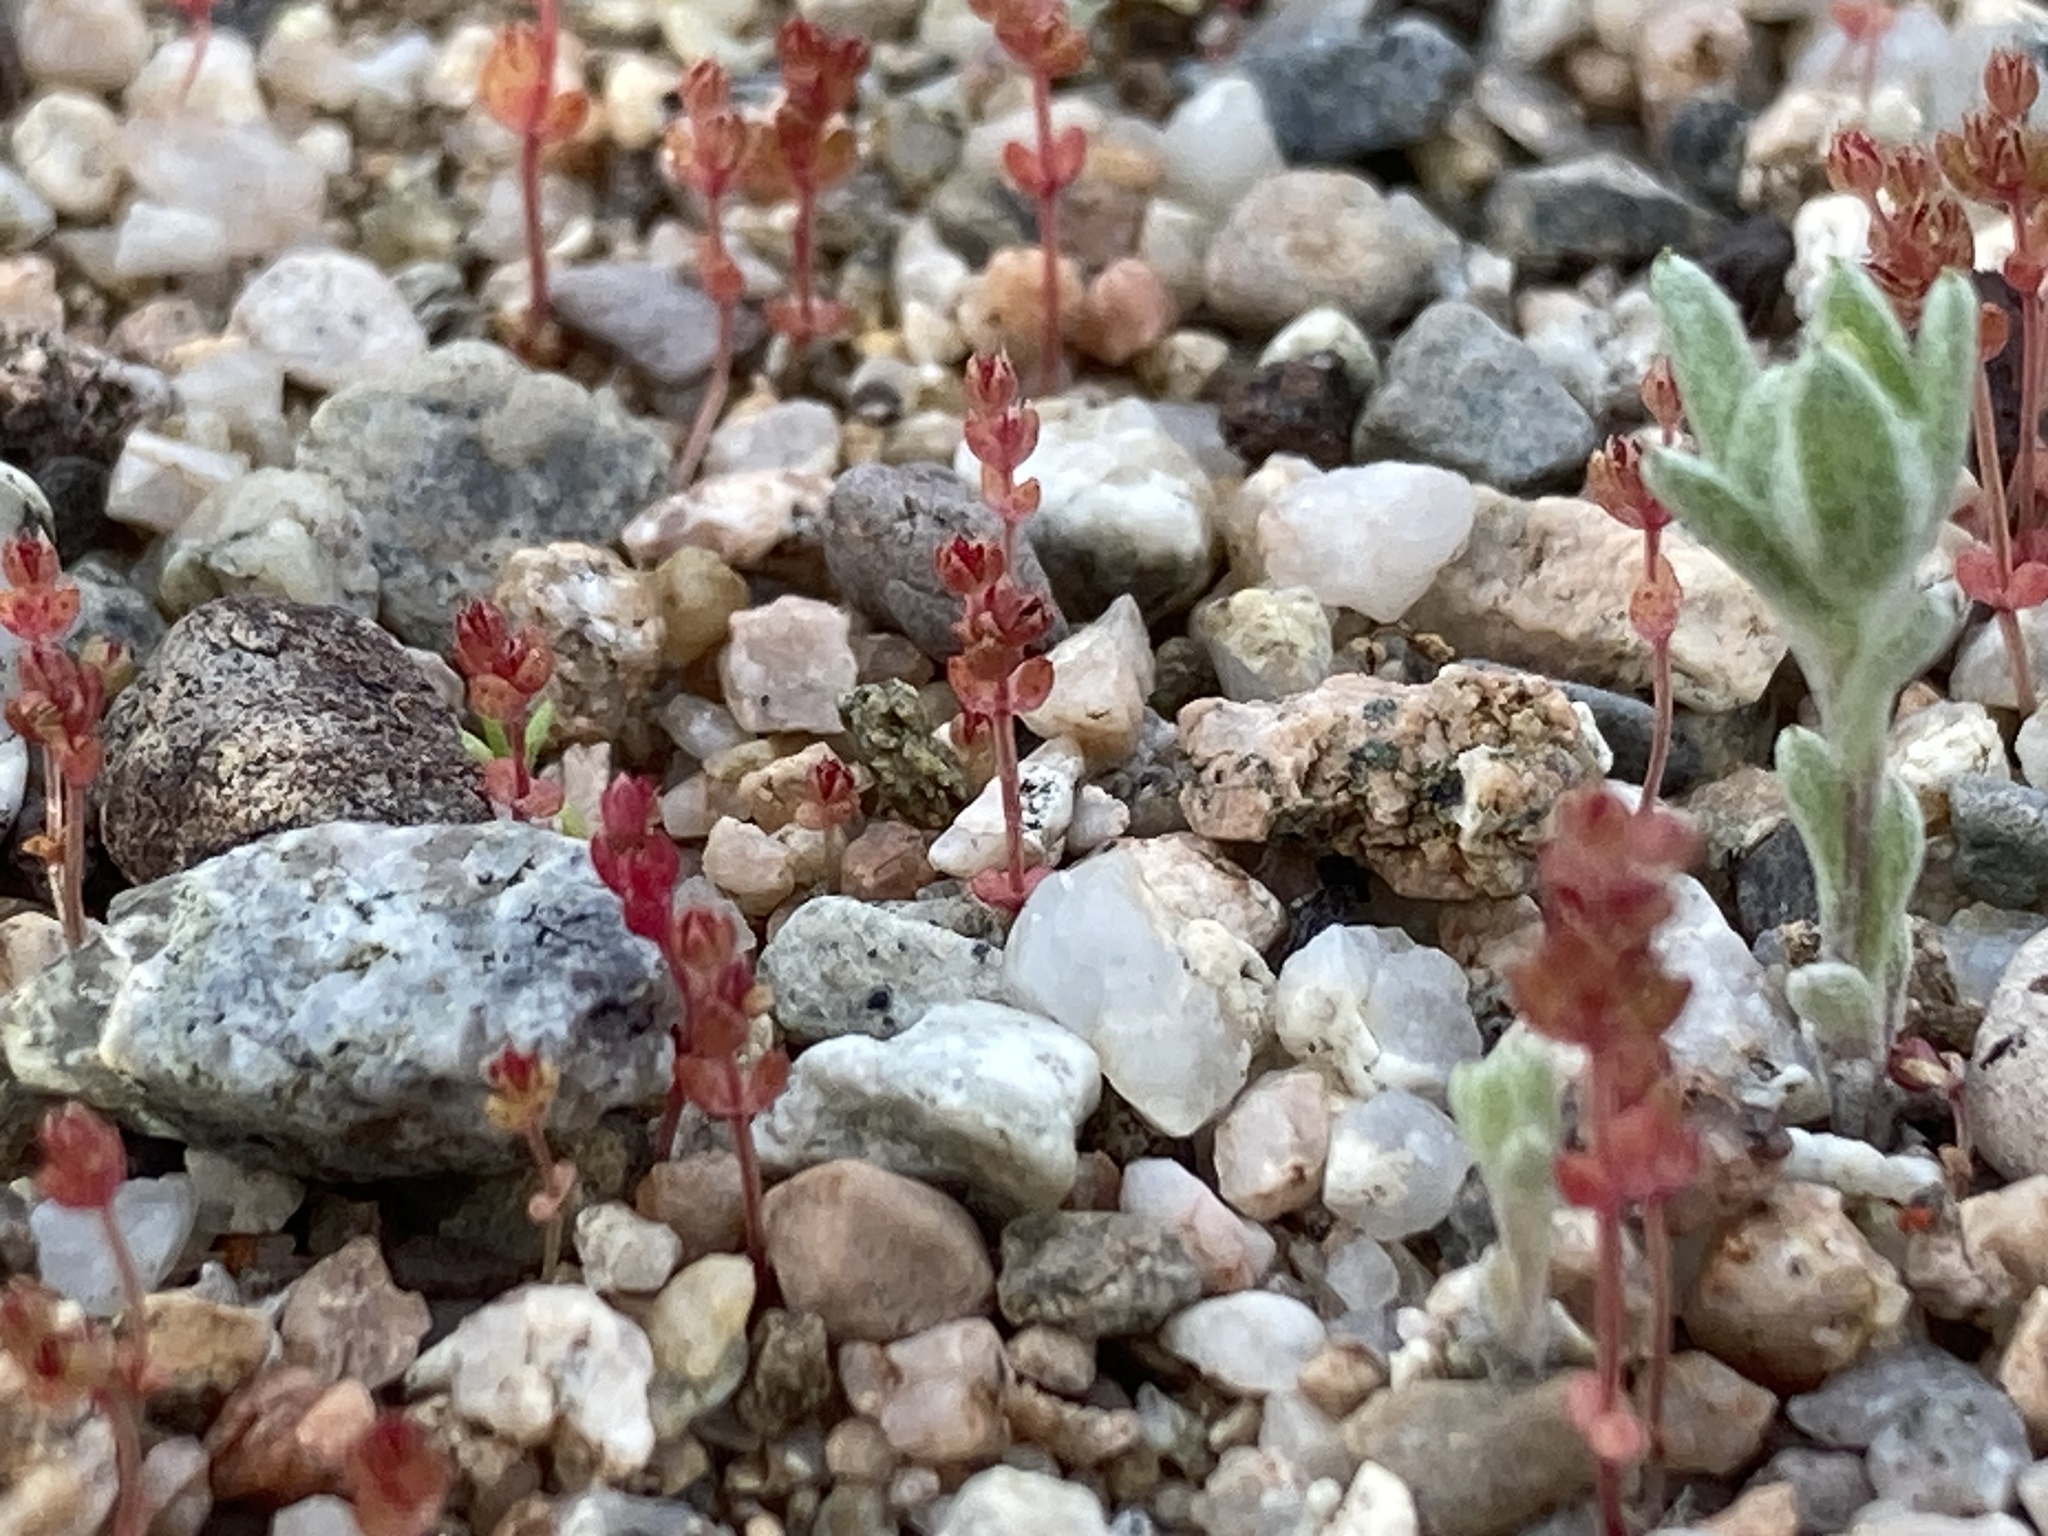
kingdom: Plantae
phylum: Tracheophyta
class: Magnoliopsida
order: Saxifragales
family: Crassulaceae
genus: Crassula
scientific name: Crassula connata
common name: Erect pygmyweed
